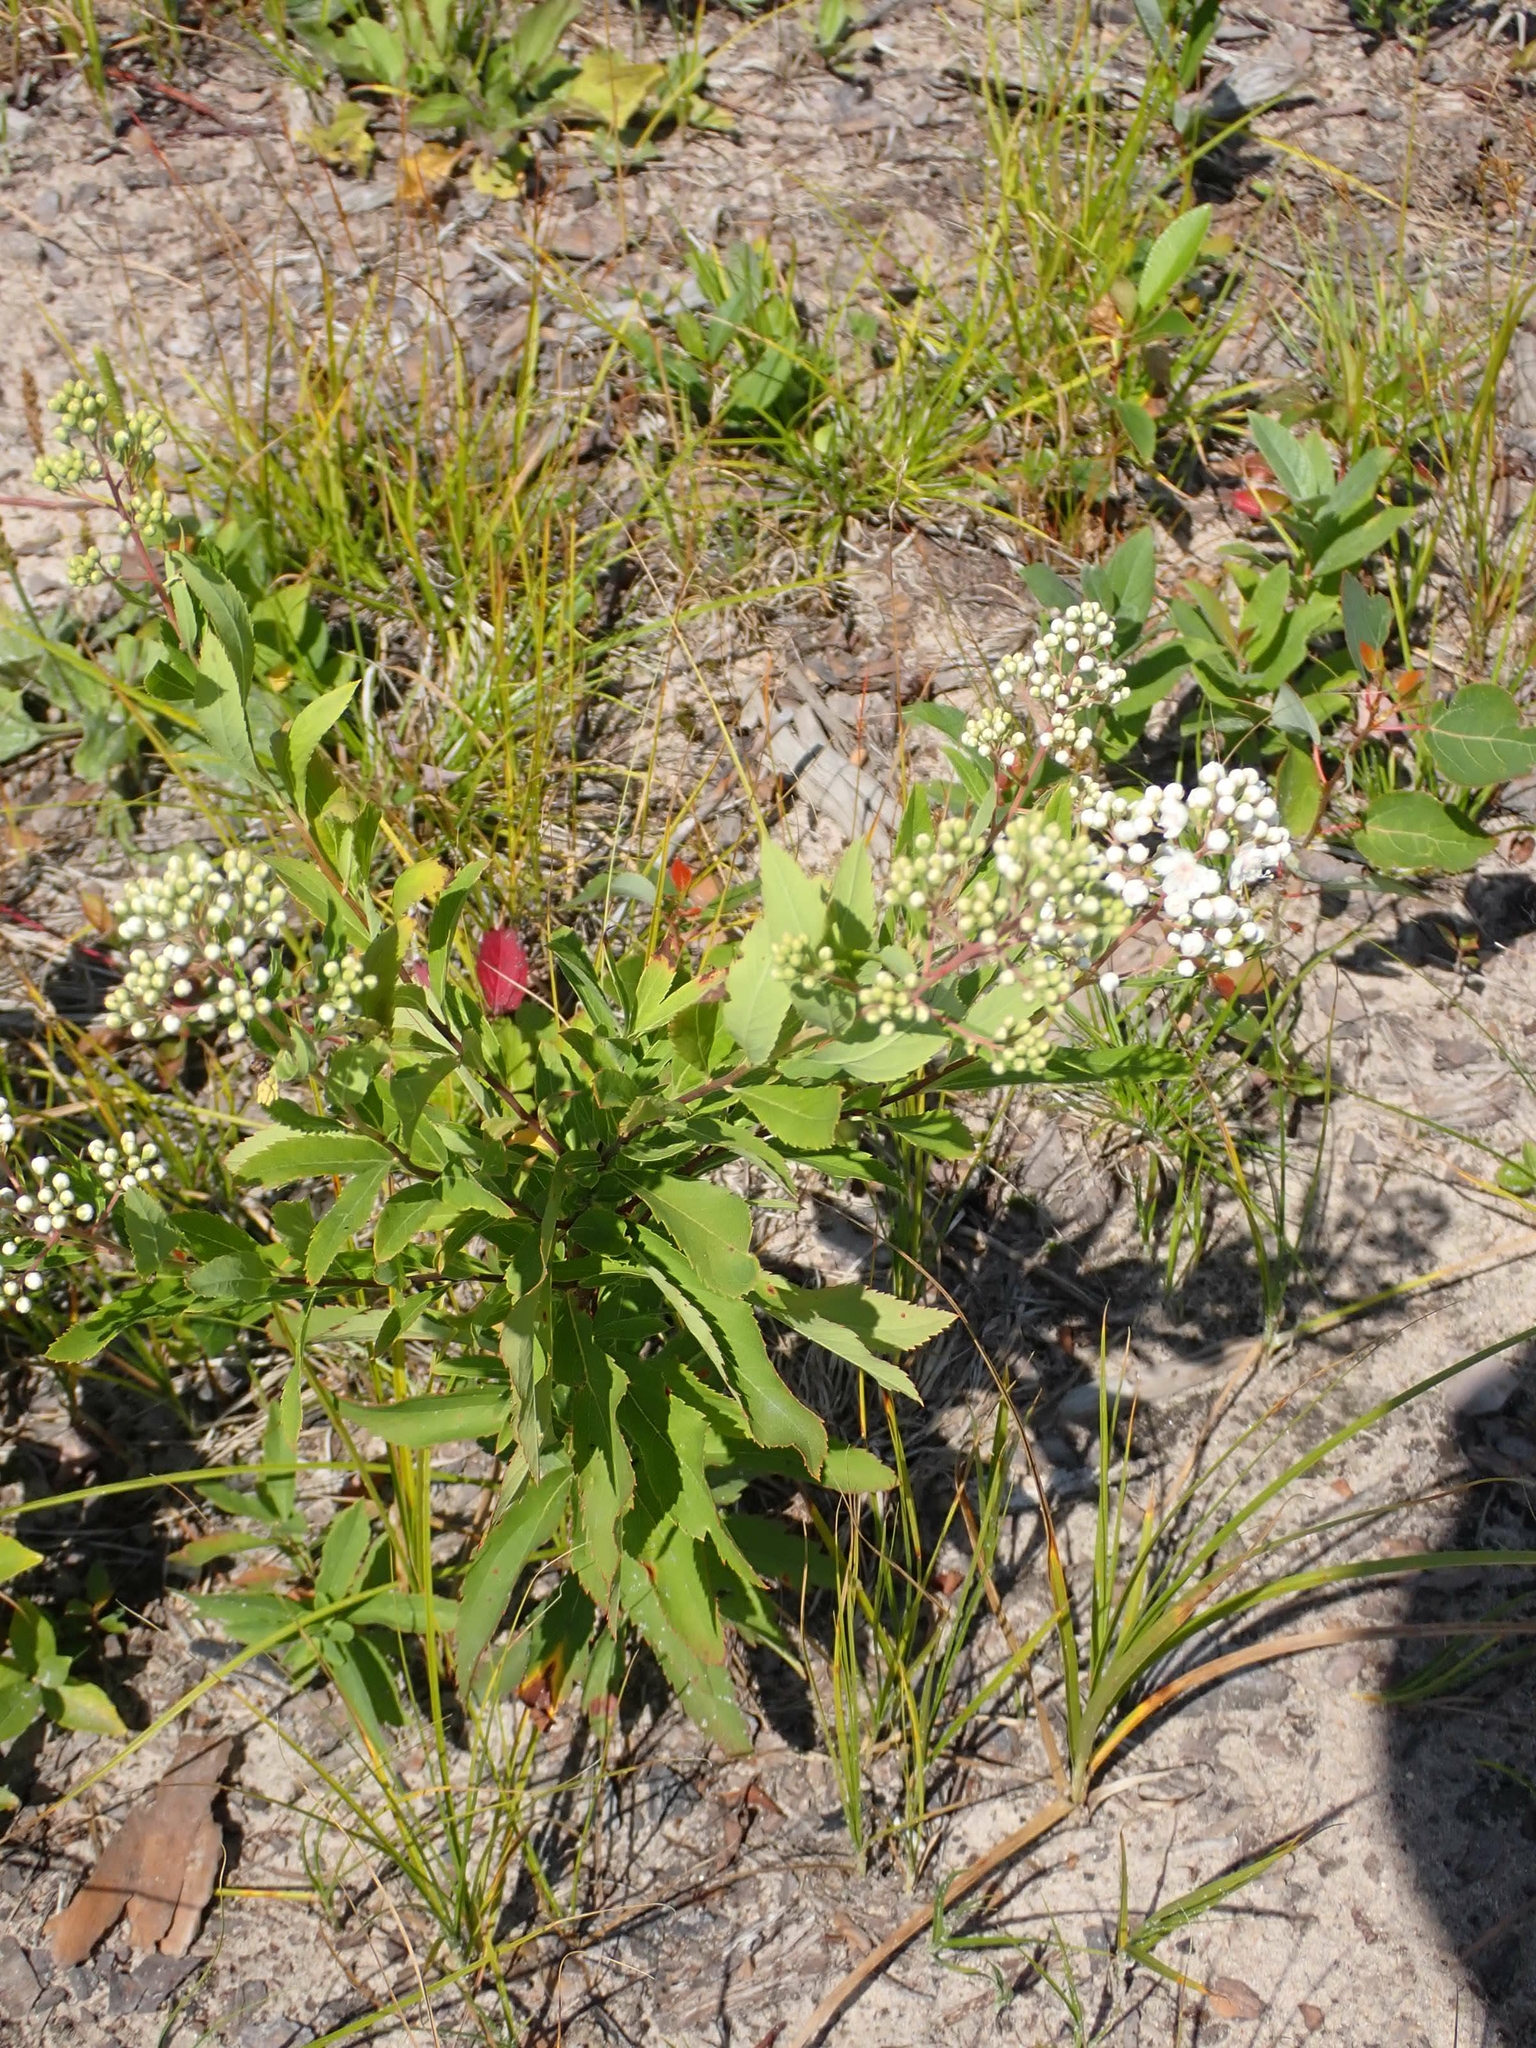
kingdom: Plantae
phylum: Tracheophyta
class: Magnoliopsida
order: Rosales
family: Rosaceae
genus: Spiraea
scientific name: Spiraea alba
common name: Pale bridewort
